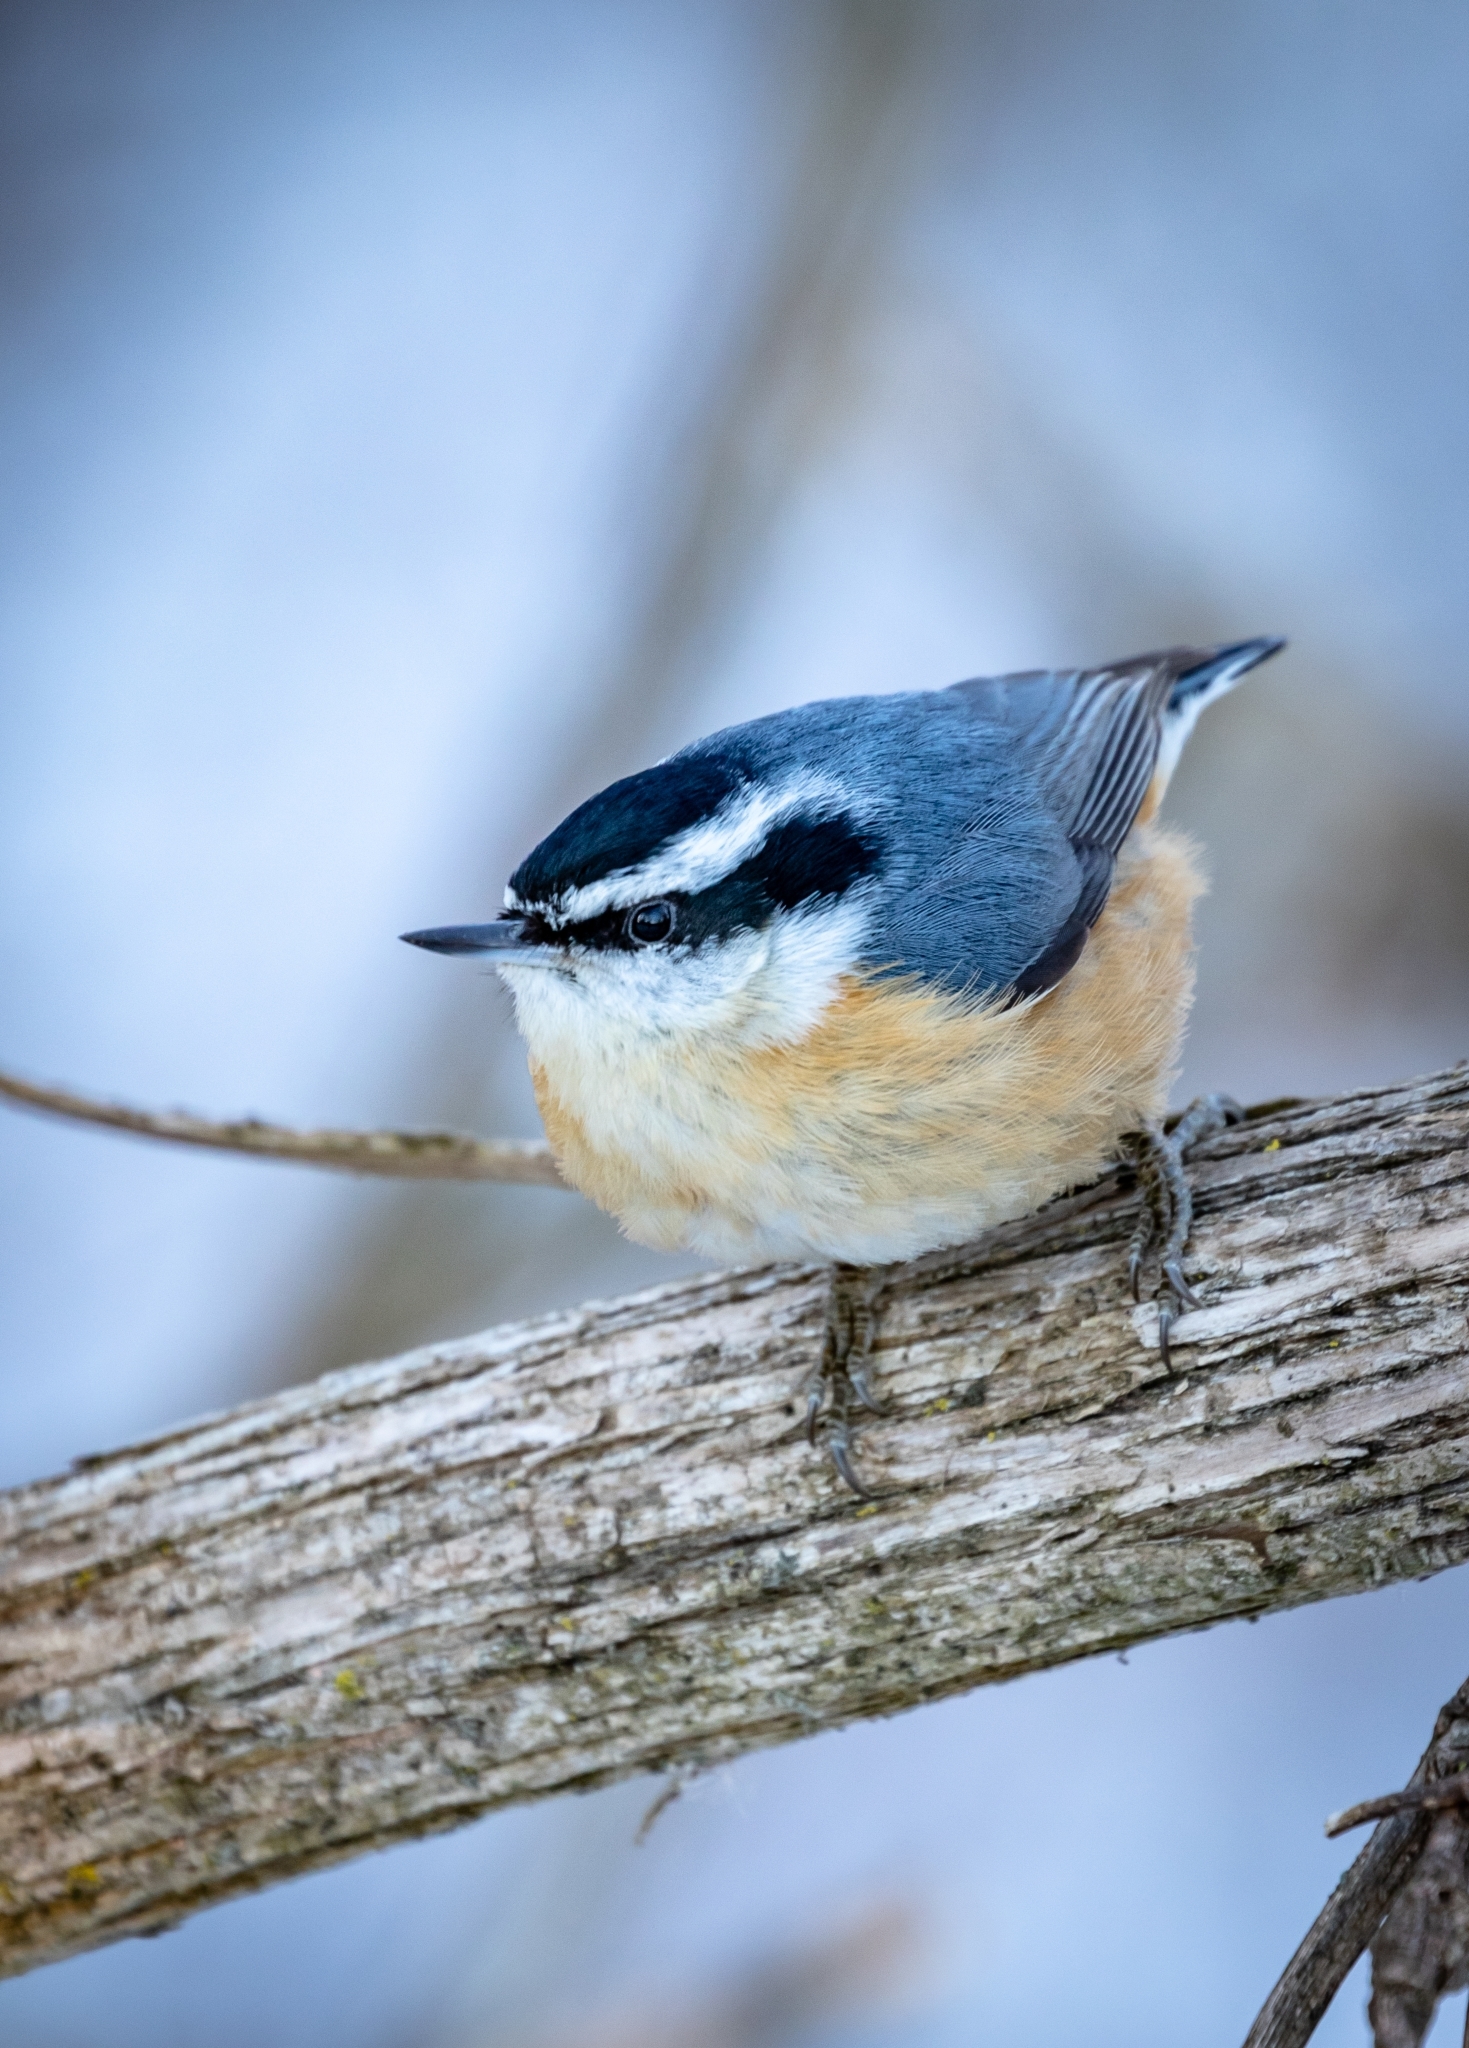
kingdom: Animalia
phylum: Chordata
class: Aves
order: Passeriformes
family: Sittidae
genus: Sitta
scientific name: Sitta canadensis
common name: Red-breasted nuthatch
